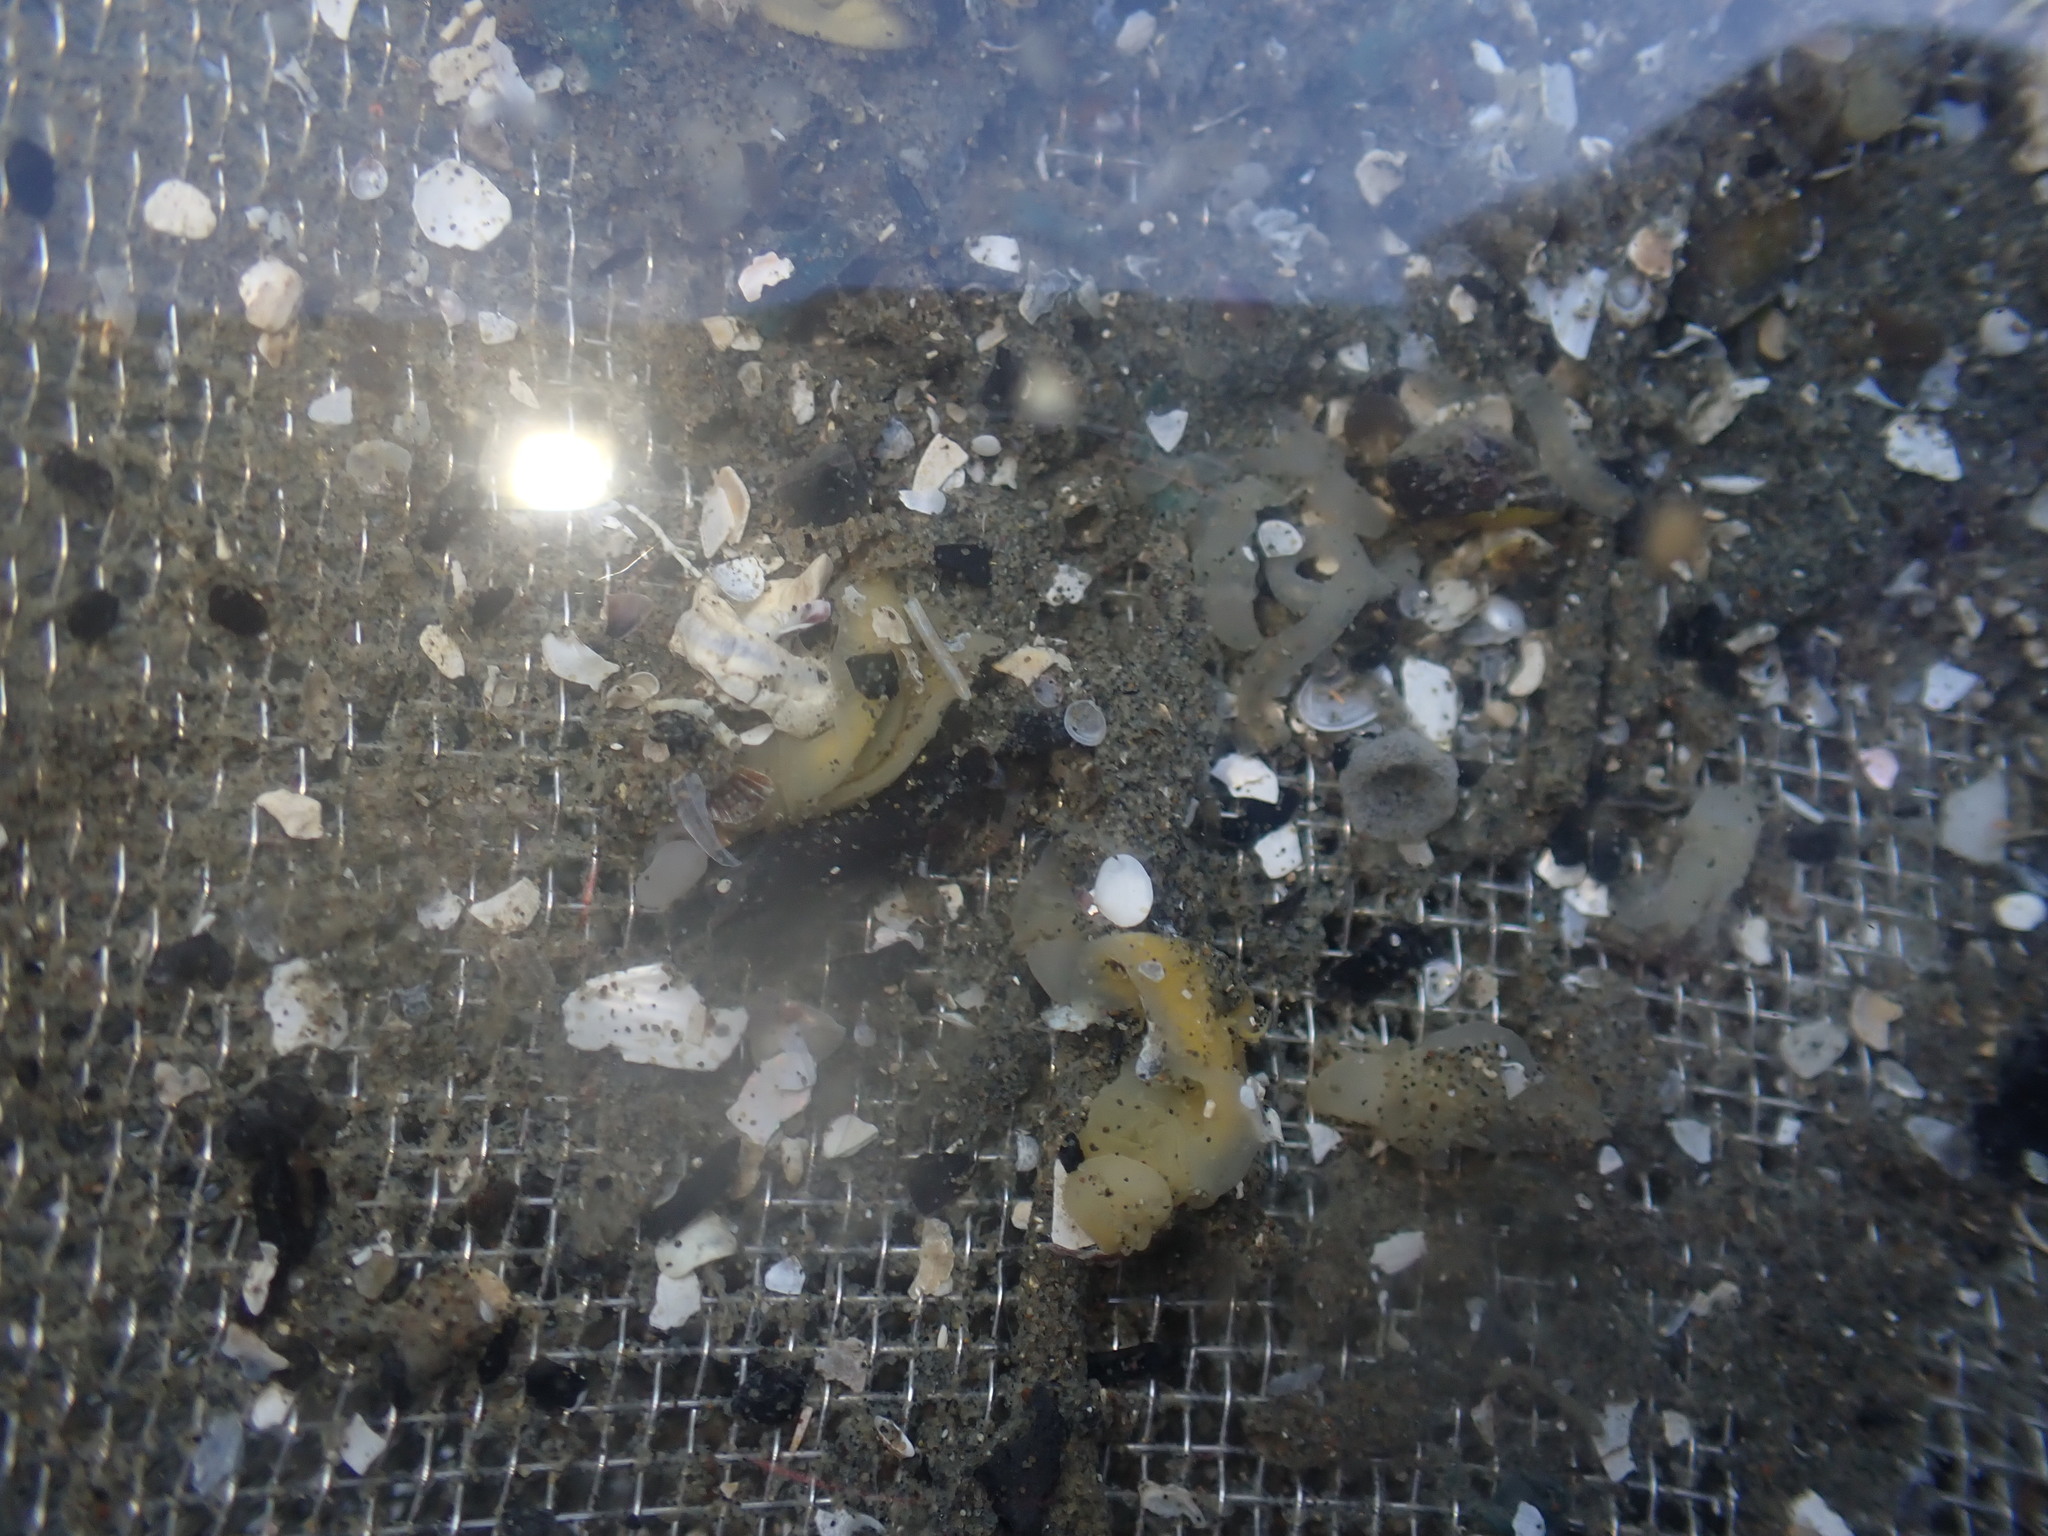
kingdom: Animalia
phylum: Hemichordata
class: Enteropneusta
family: Ptychoderidae
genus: Balanoglossus
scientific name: Balanoglossus australiensis
